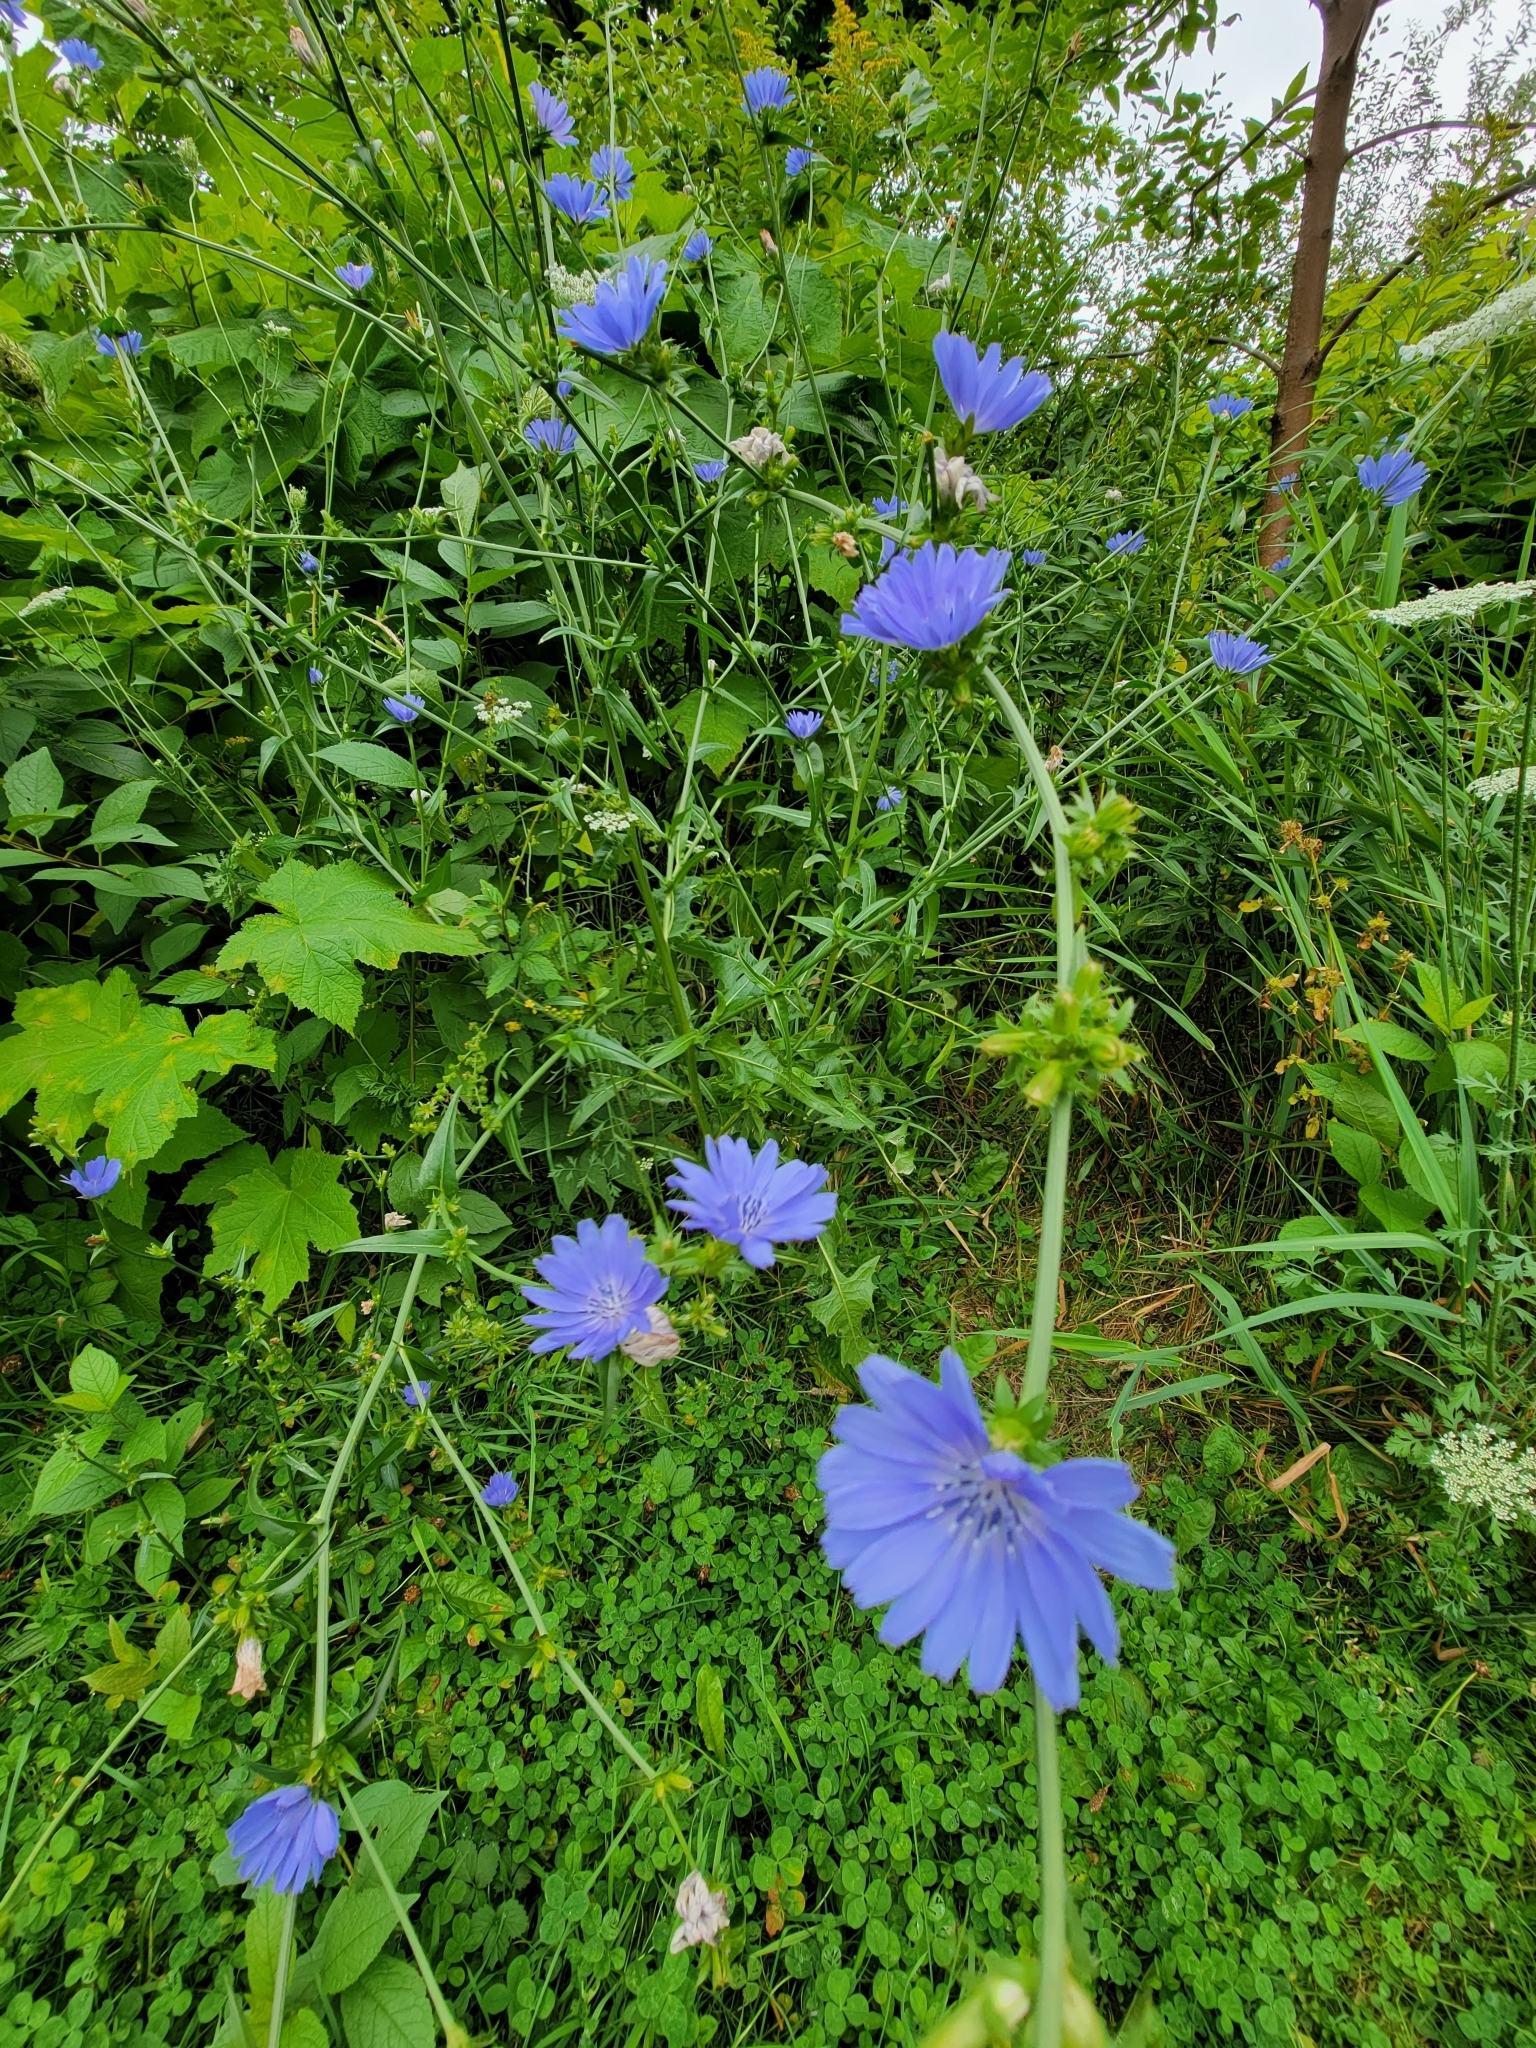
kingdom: Plantae
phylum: Tracheophyta
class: Magnoliopsida
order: Asterales
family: Asteraceae
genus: Cichorium
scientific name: Cichorium intybus
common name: Chicory
